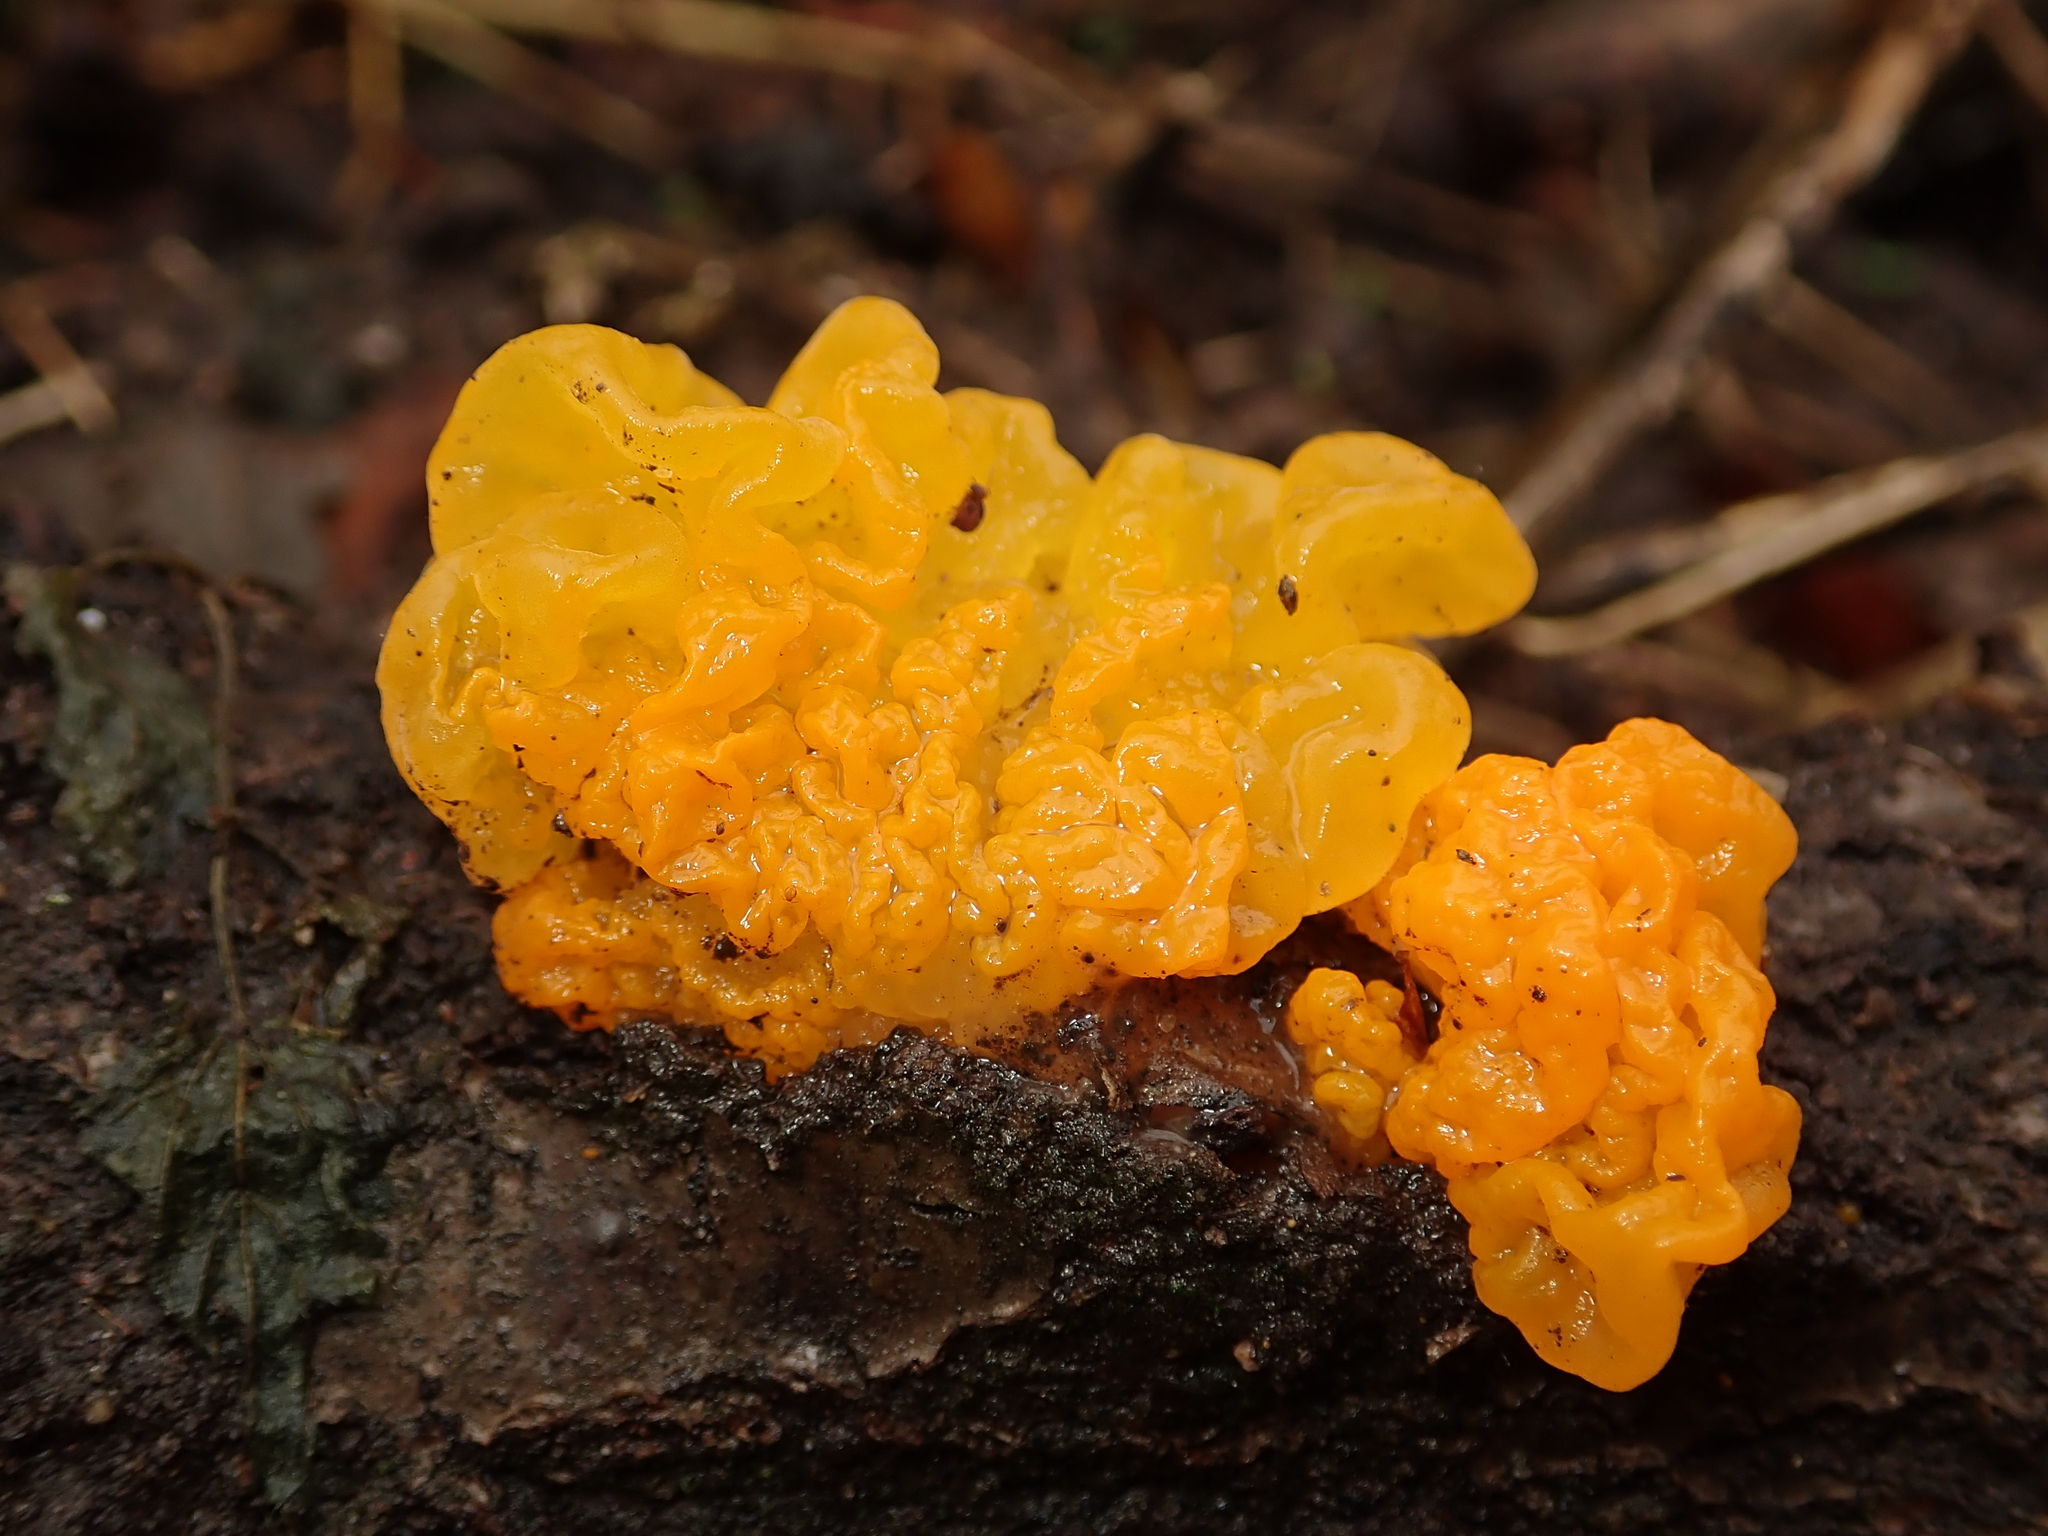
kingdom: Fungi
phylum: Basidiomycota
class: Tremellomycetes
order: Tremellales
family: Tremellaceae
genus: Tremella
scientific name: Tremella mesenterica
